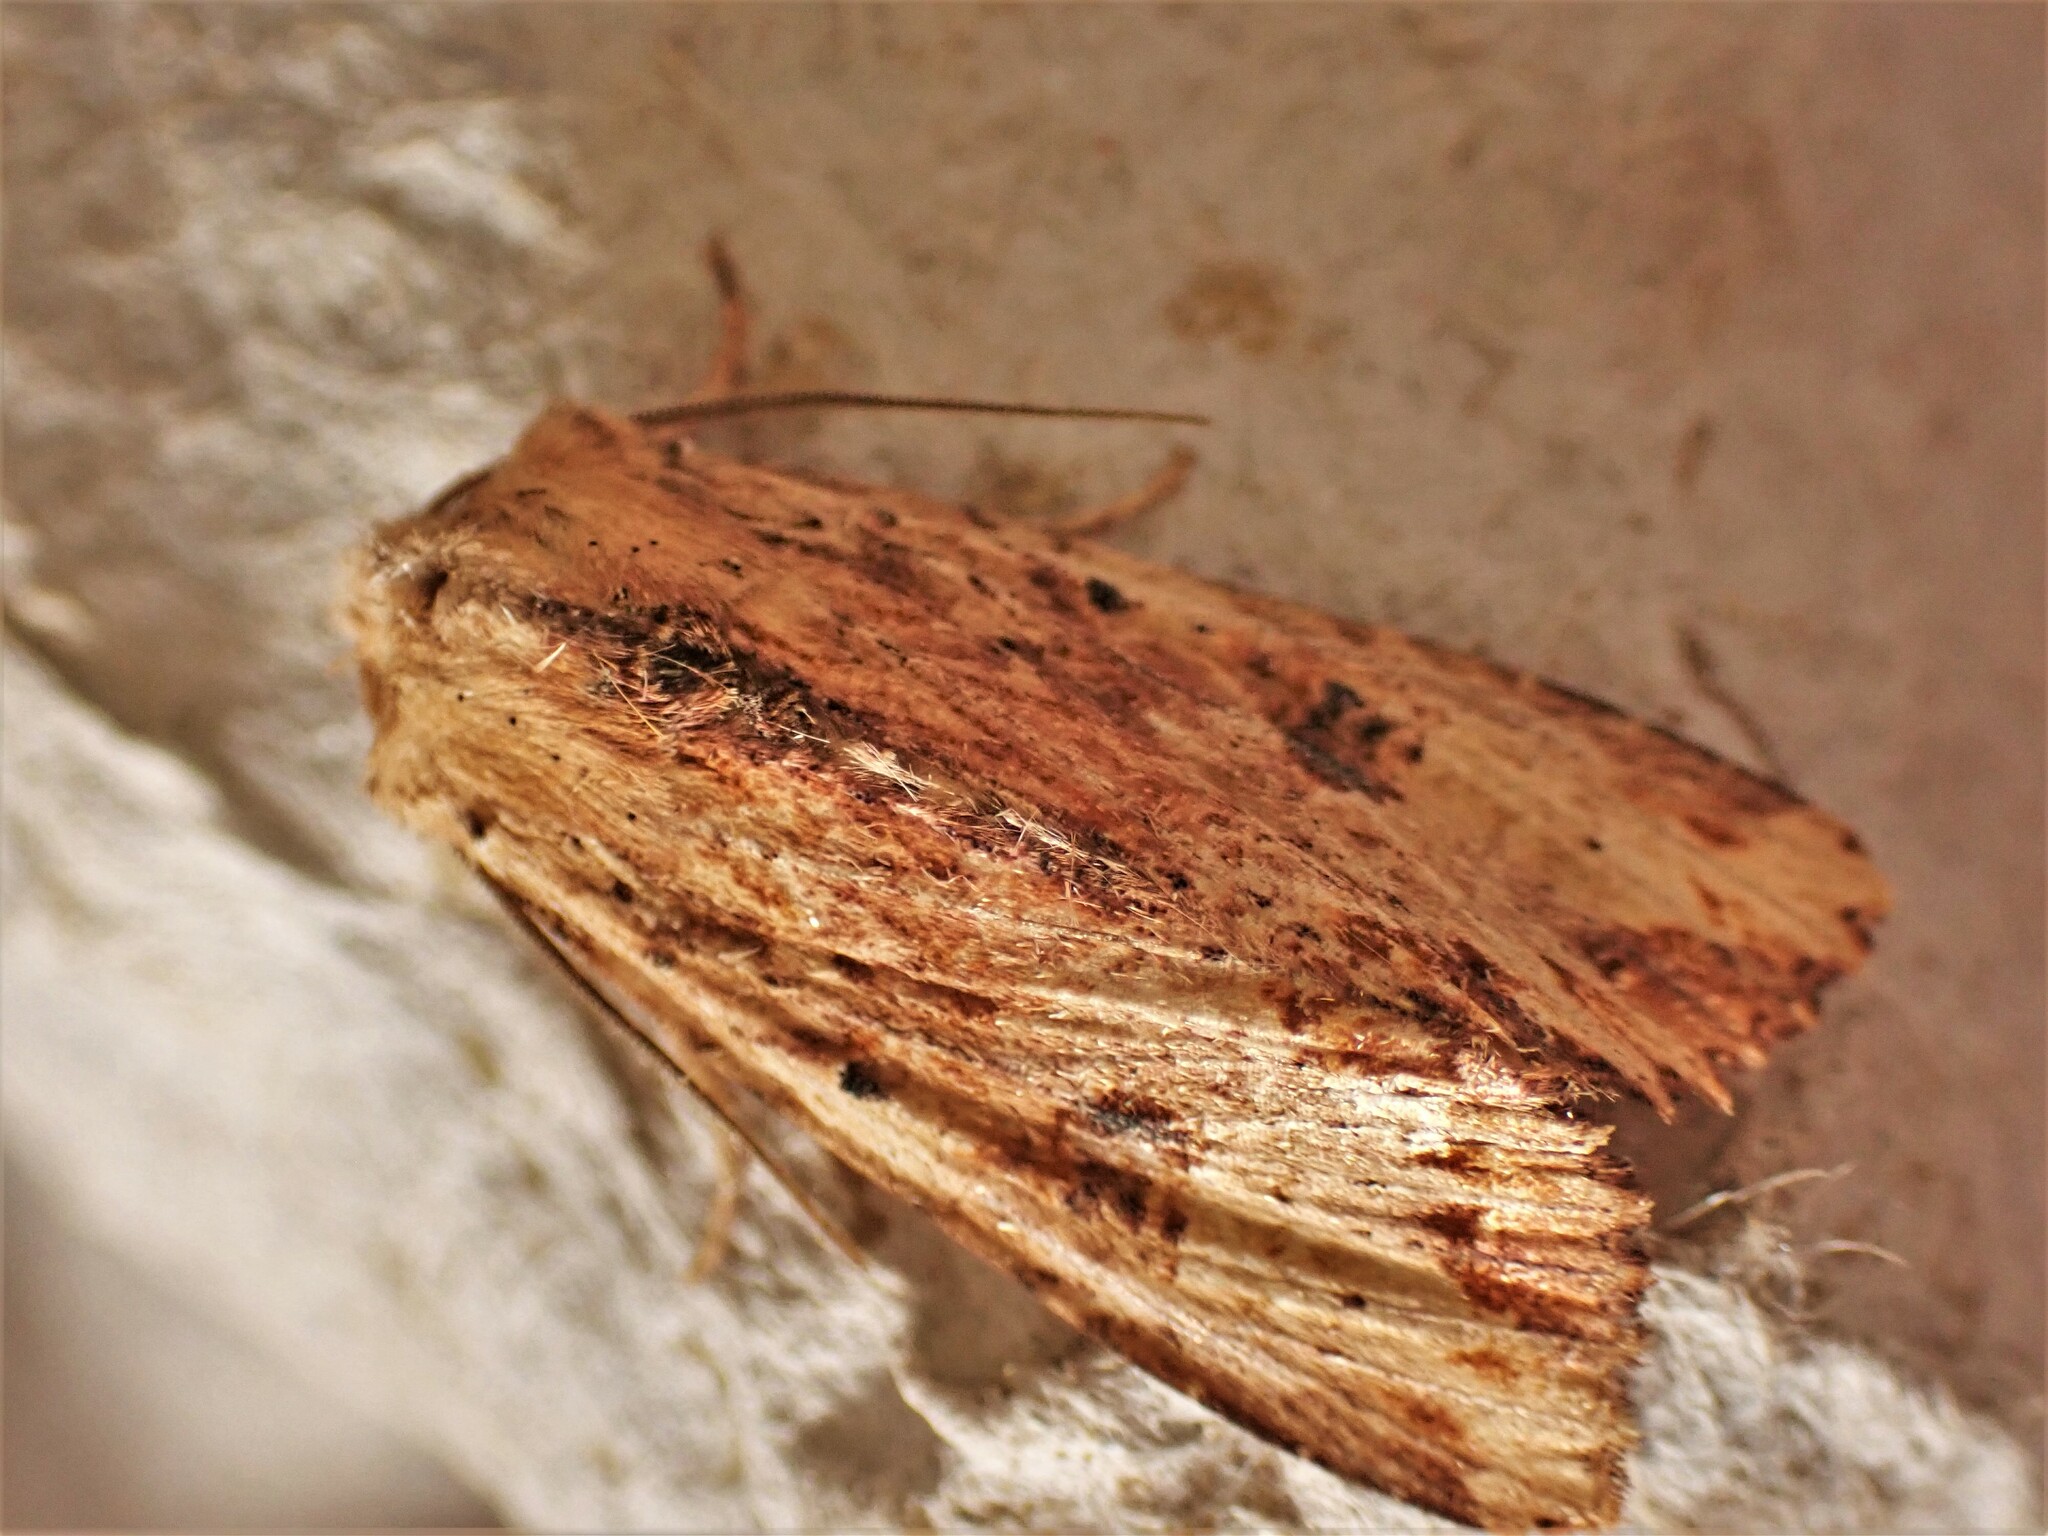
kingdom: Animalia
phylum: Arthropoda
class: Insecta
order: Lepidoptera
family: Noctuidae
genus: Ichneutica
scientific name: Ichneutica
